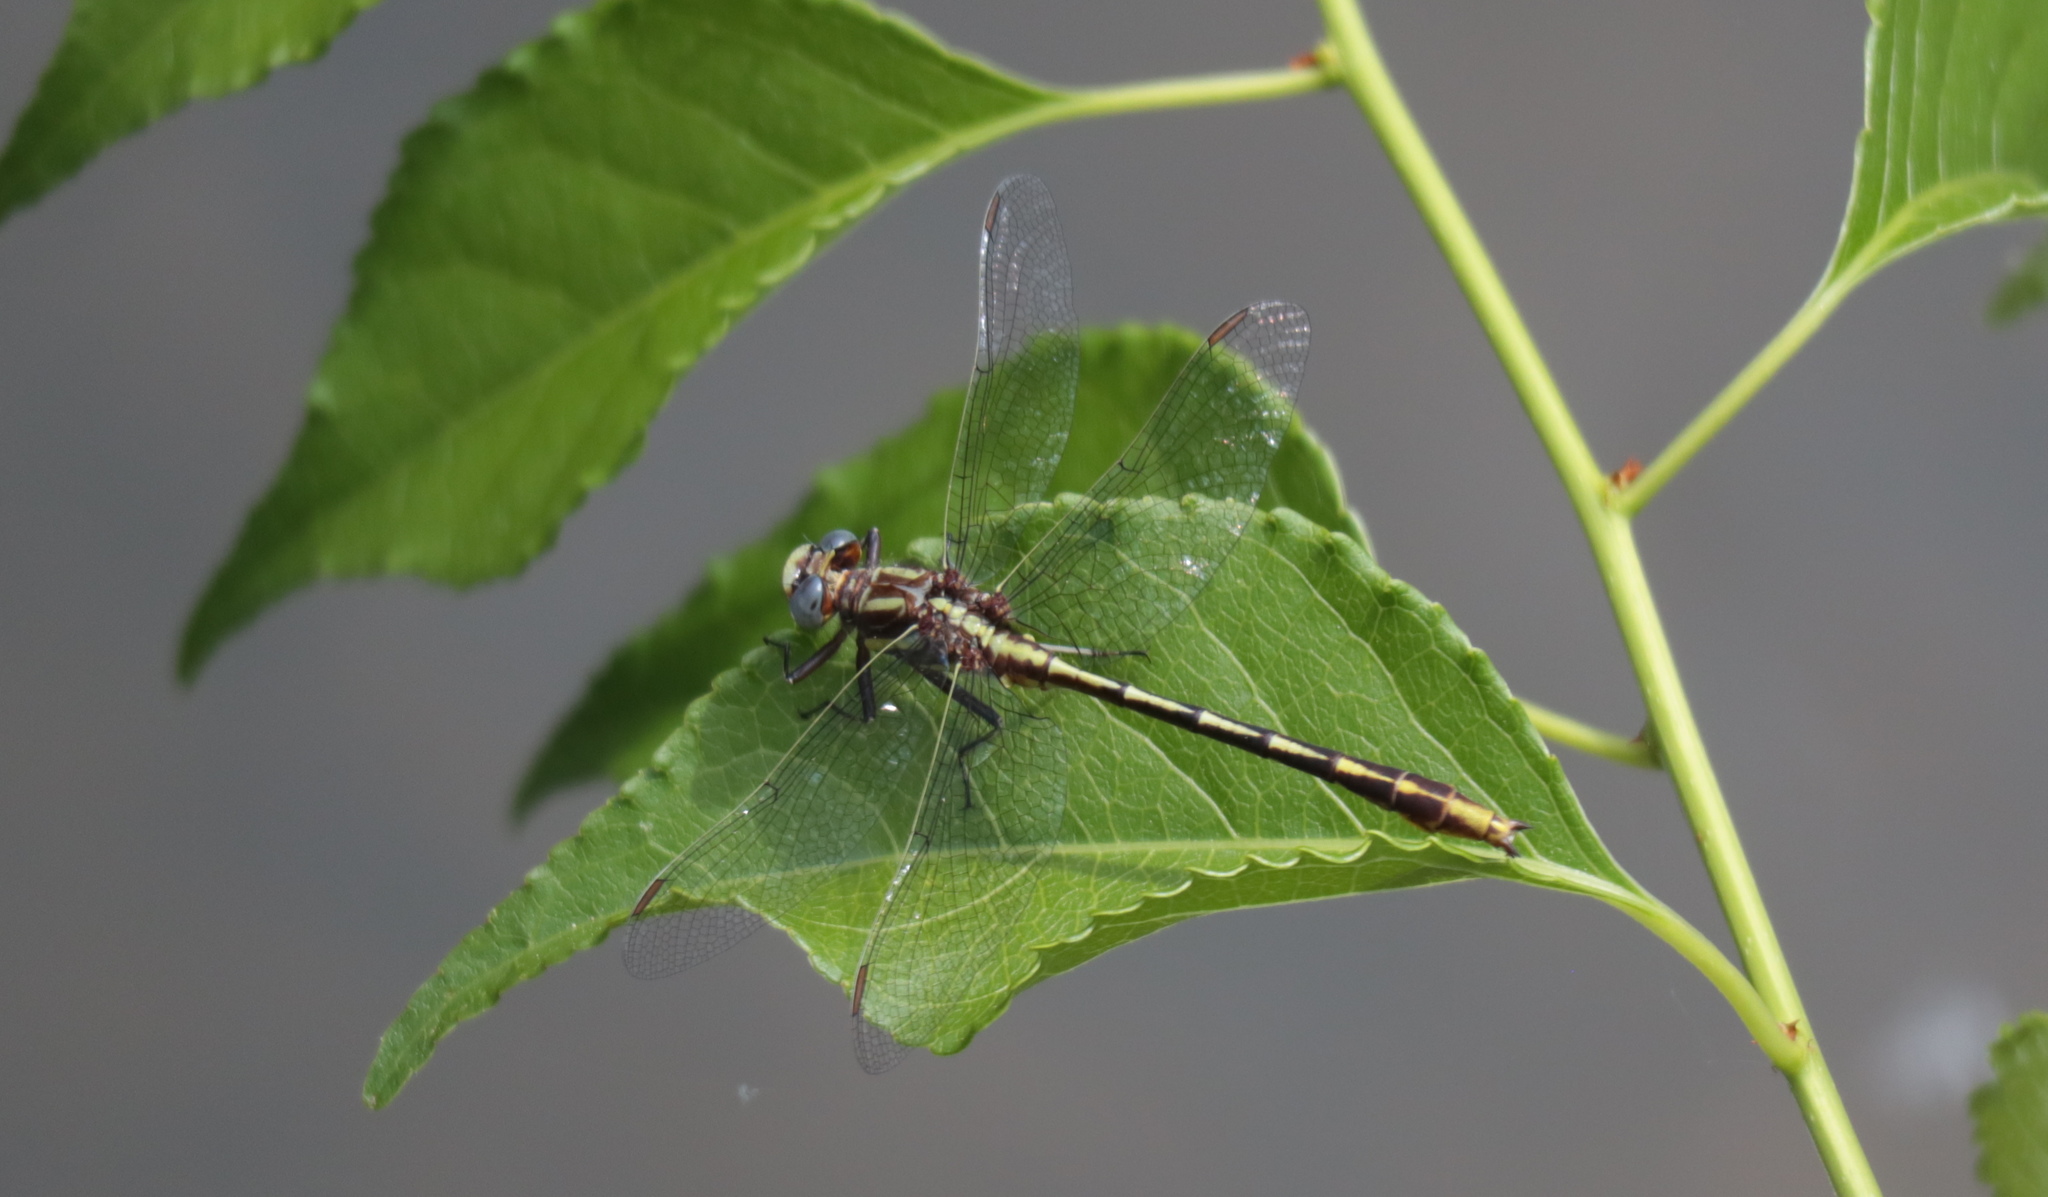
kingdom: Animalia
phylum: Arthropoda
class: Insecta
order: Odonata
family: Gomphidae
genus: Phanogomphus
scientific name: Phanogomphus exilis
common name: Lancet clubtail
